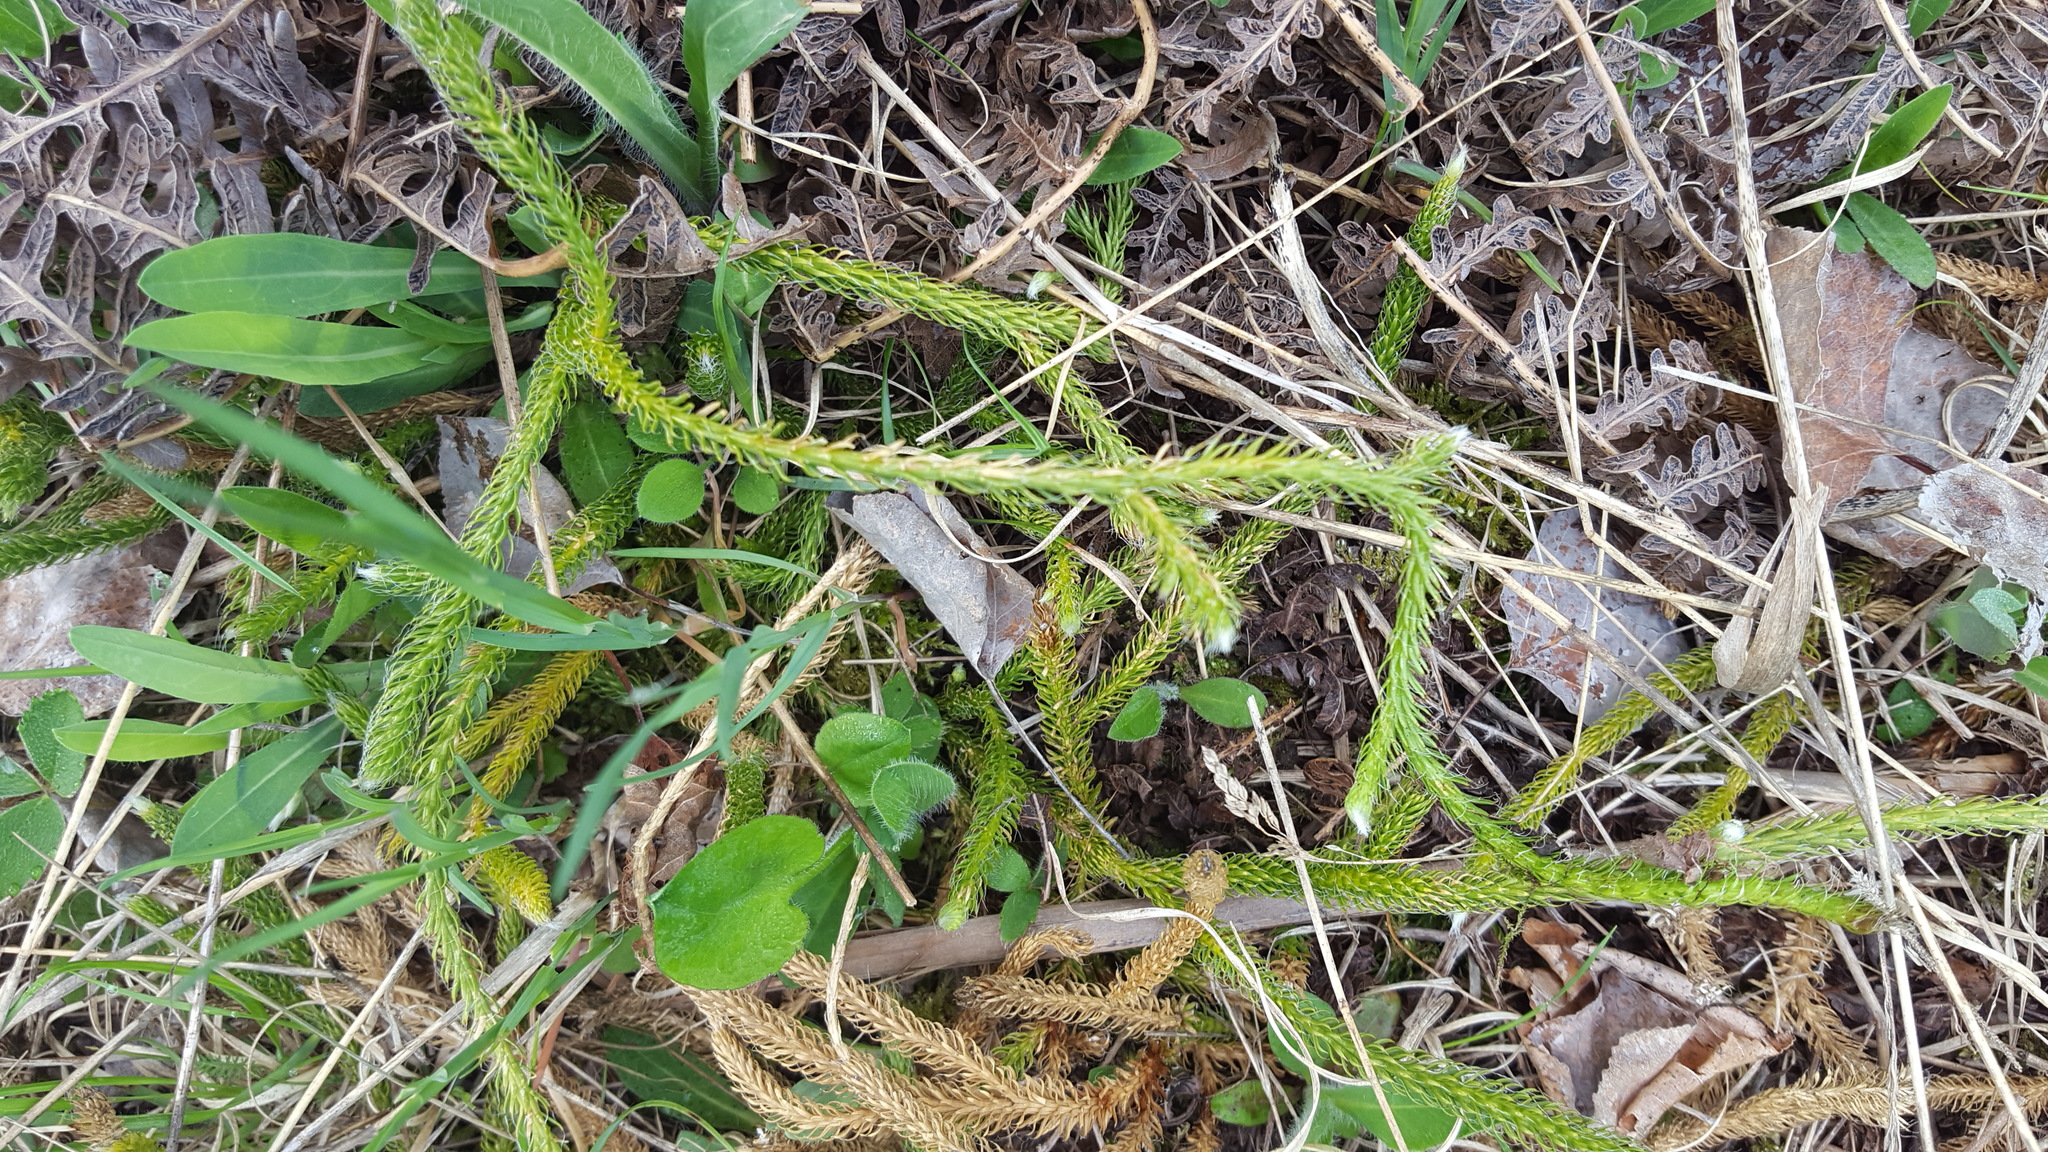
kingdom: Plantae
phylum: Tracheophyta
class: Lycopodiopsida
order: Lycopodiales
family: Lycopodiaceae
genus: Lycopodium
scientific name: Lycopodium clavatum
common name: Stag's-horn clubmoss
